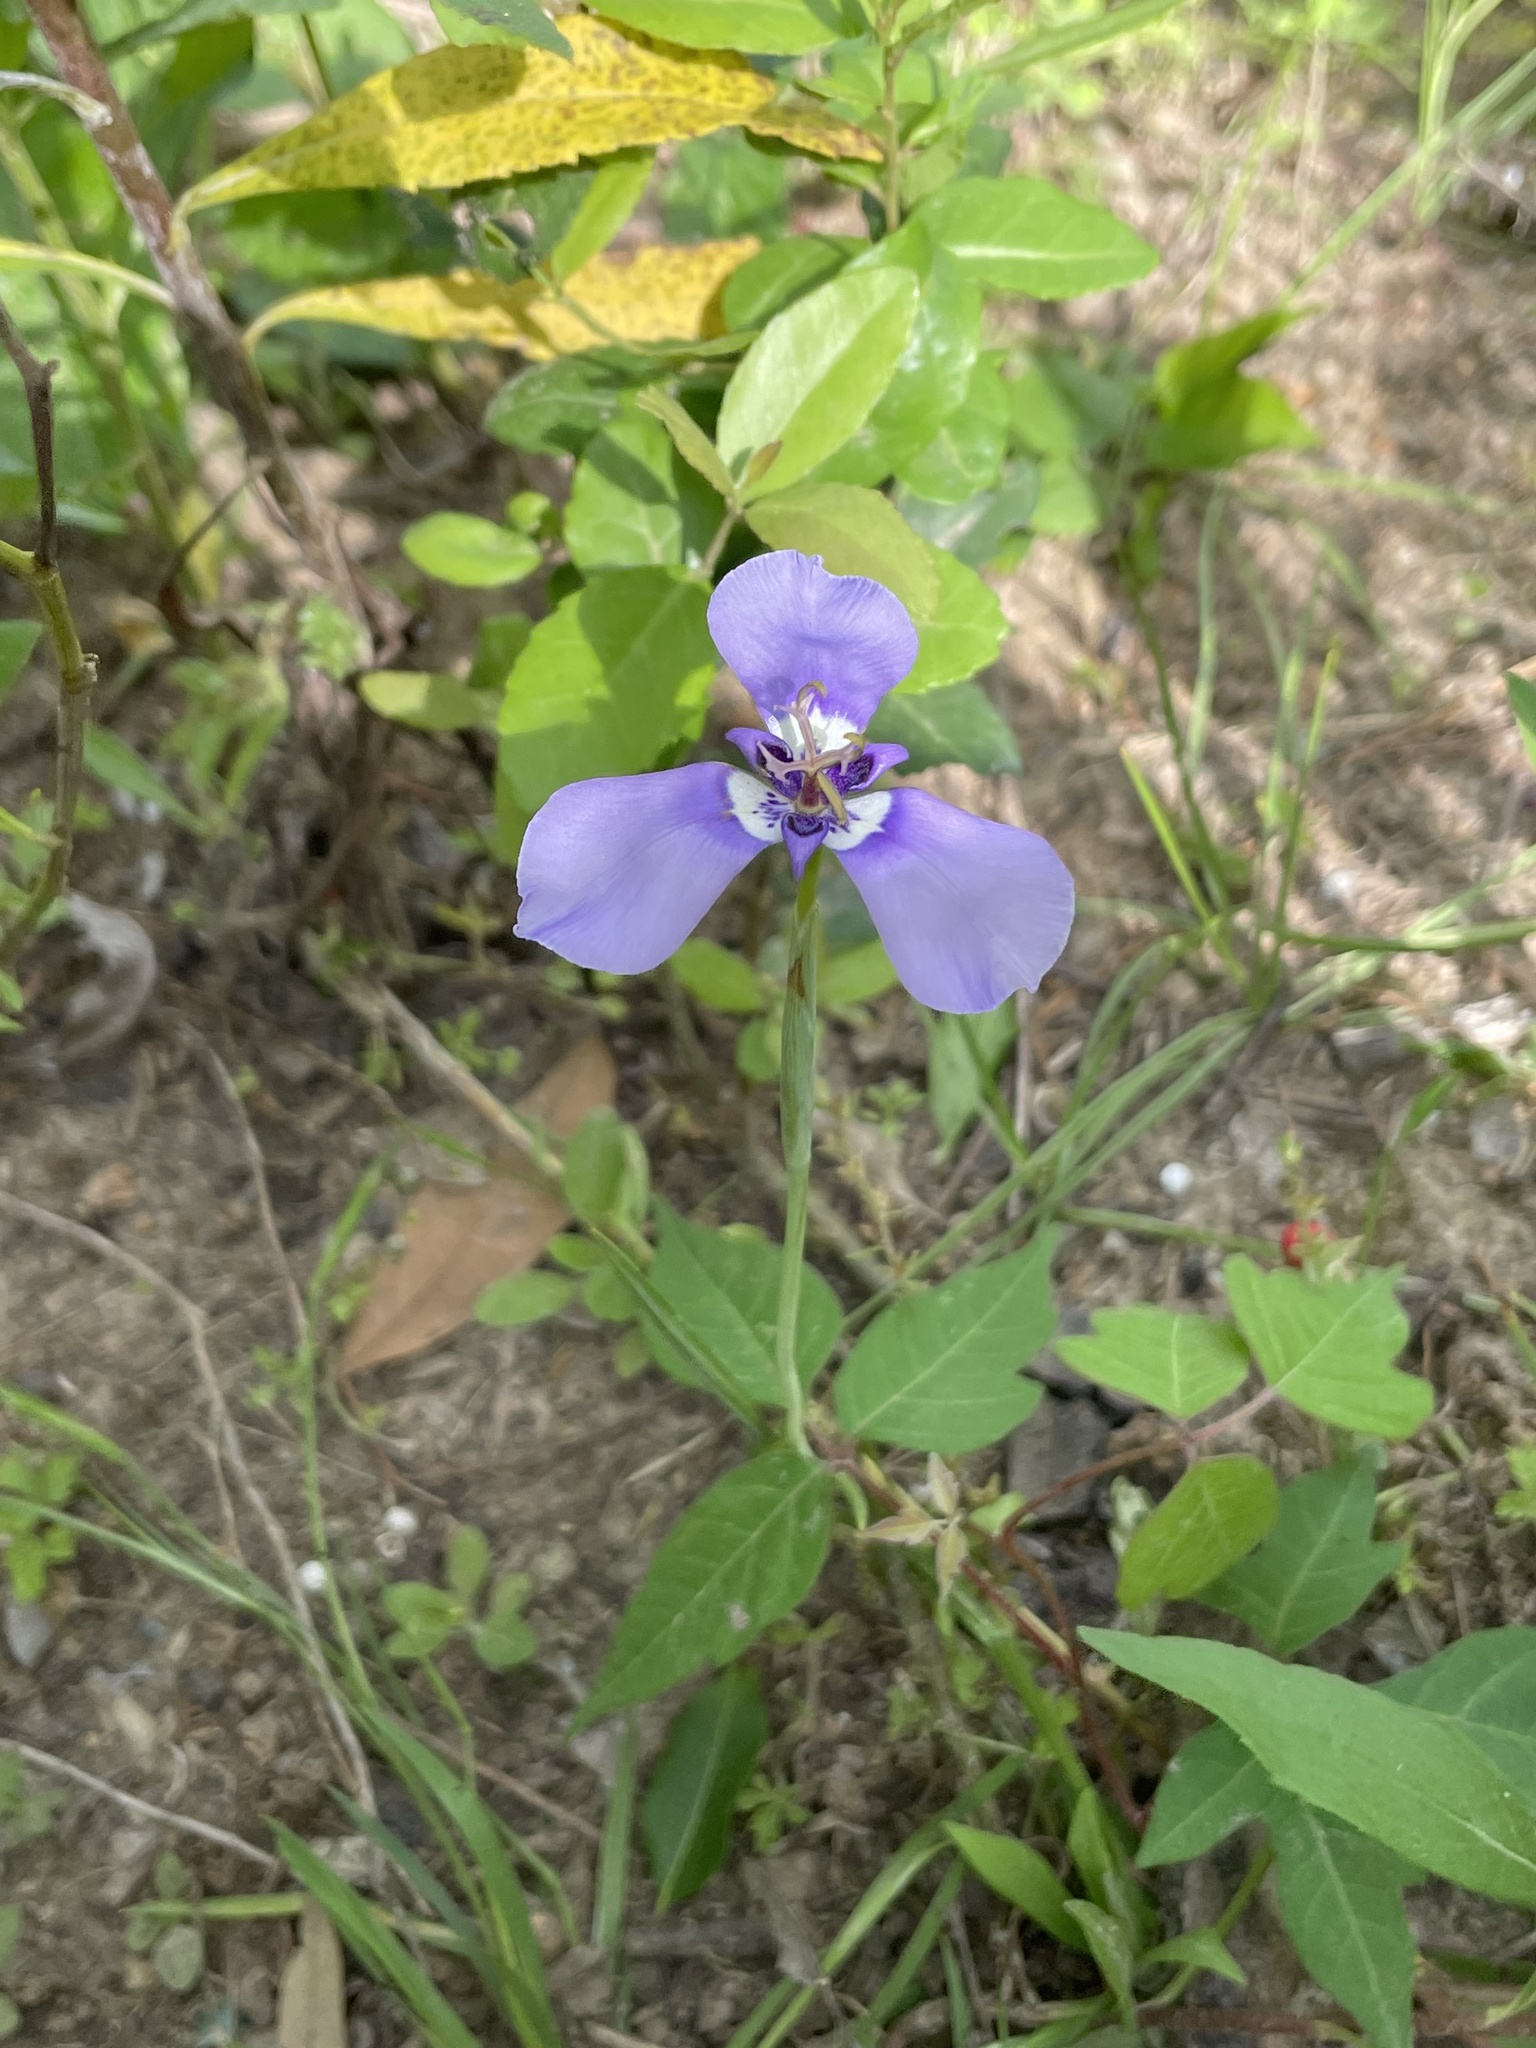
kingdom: Plantae
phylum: Tracheophyta
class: Liliopsida
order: Asparagales
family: Iridaceae
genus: Herbertia
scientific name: Herbertia lahue
